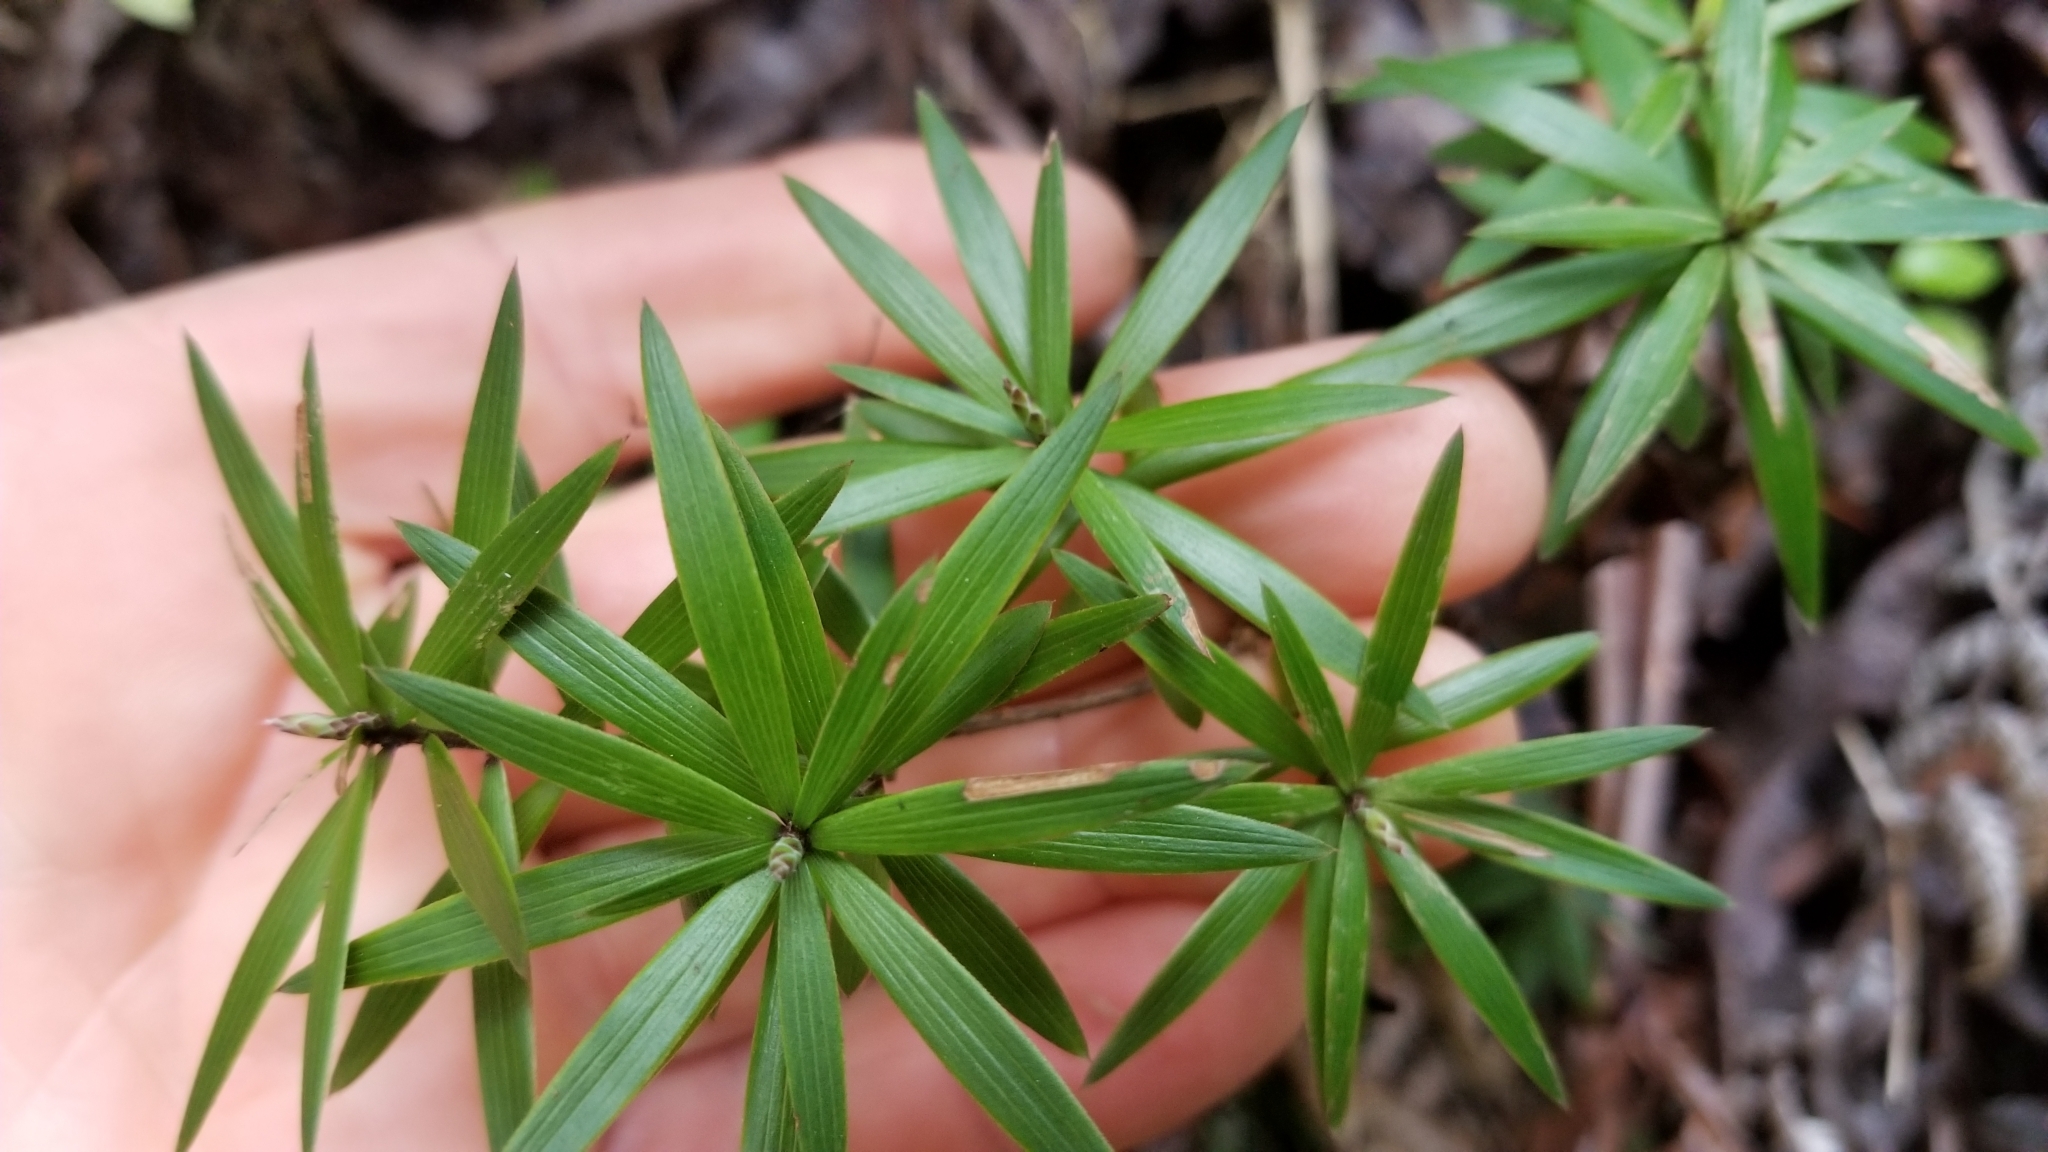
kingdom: Plantae
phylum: Tracheophyta
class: Magnoliopsida
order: Ericales
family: Ericaceae
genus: Leucopogon
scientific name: Leucopogon fasciculatus
